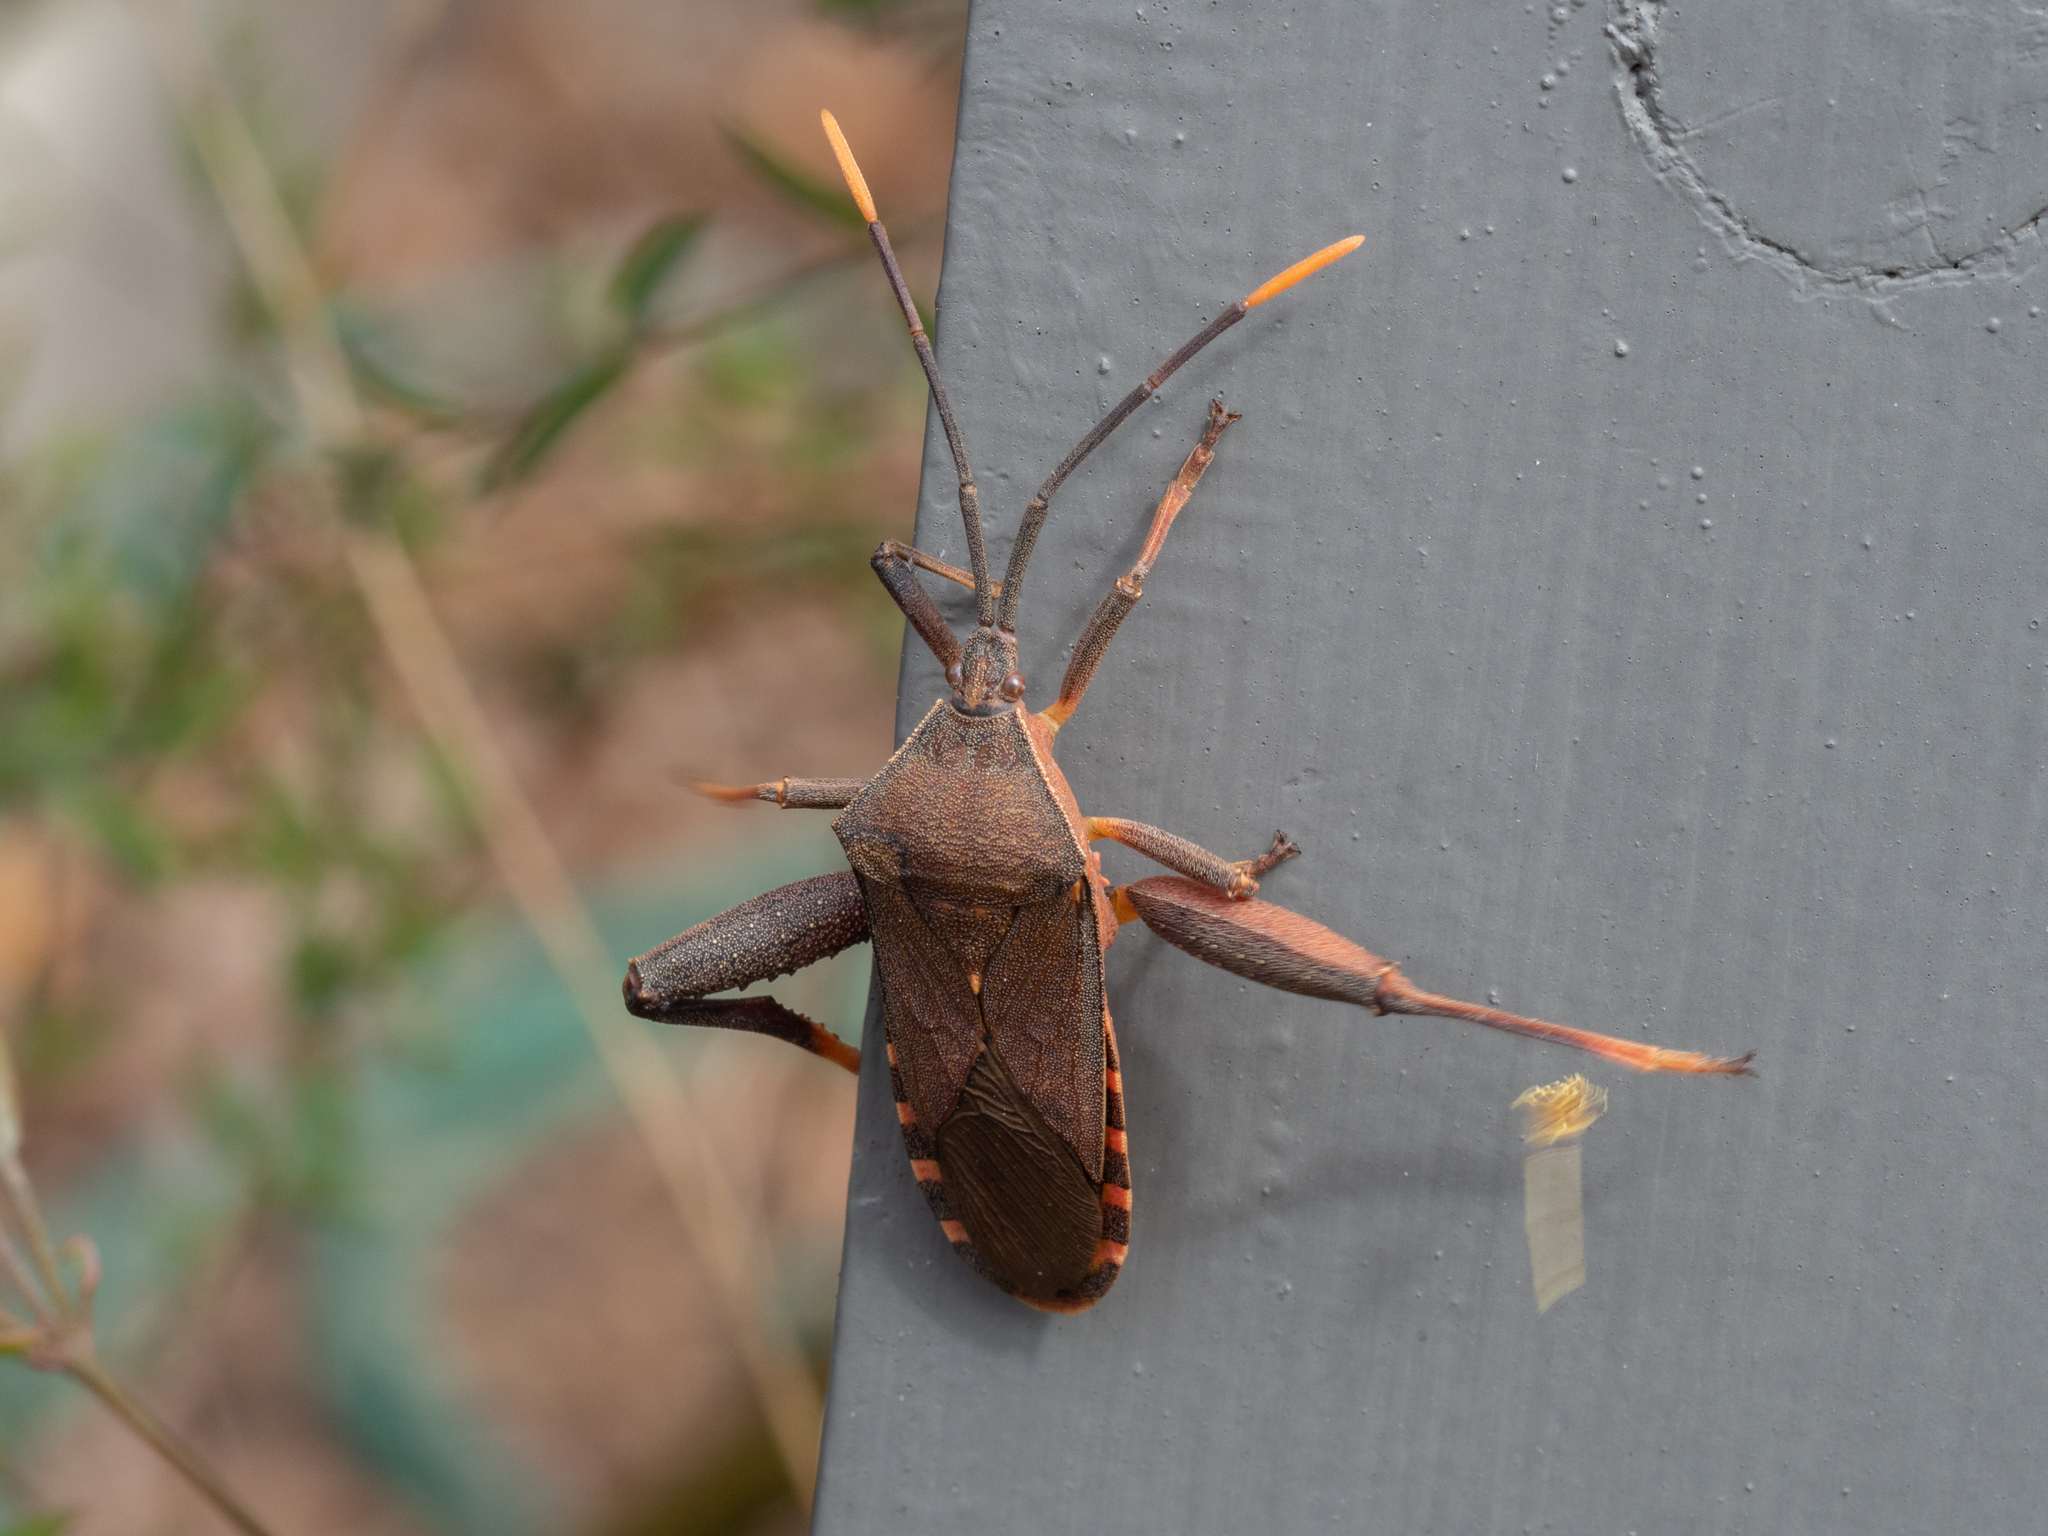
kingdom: Animalia
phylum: Arthropoda
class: Insecta
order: Hemiptera
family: Coreidae
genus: Amorbus
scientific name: Amorbus atomarius
